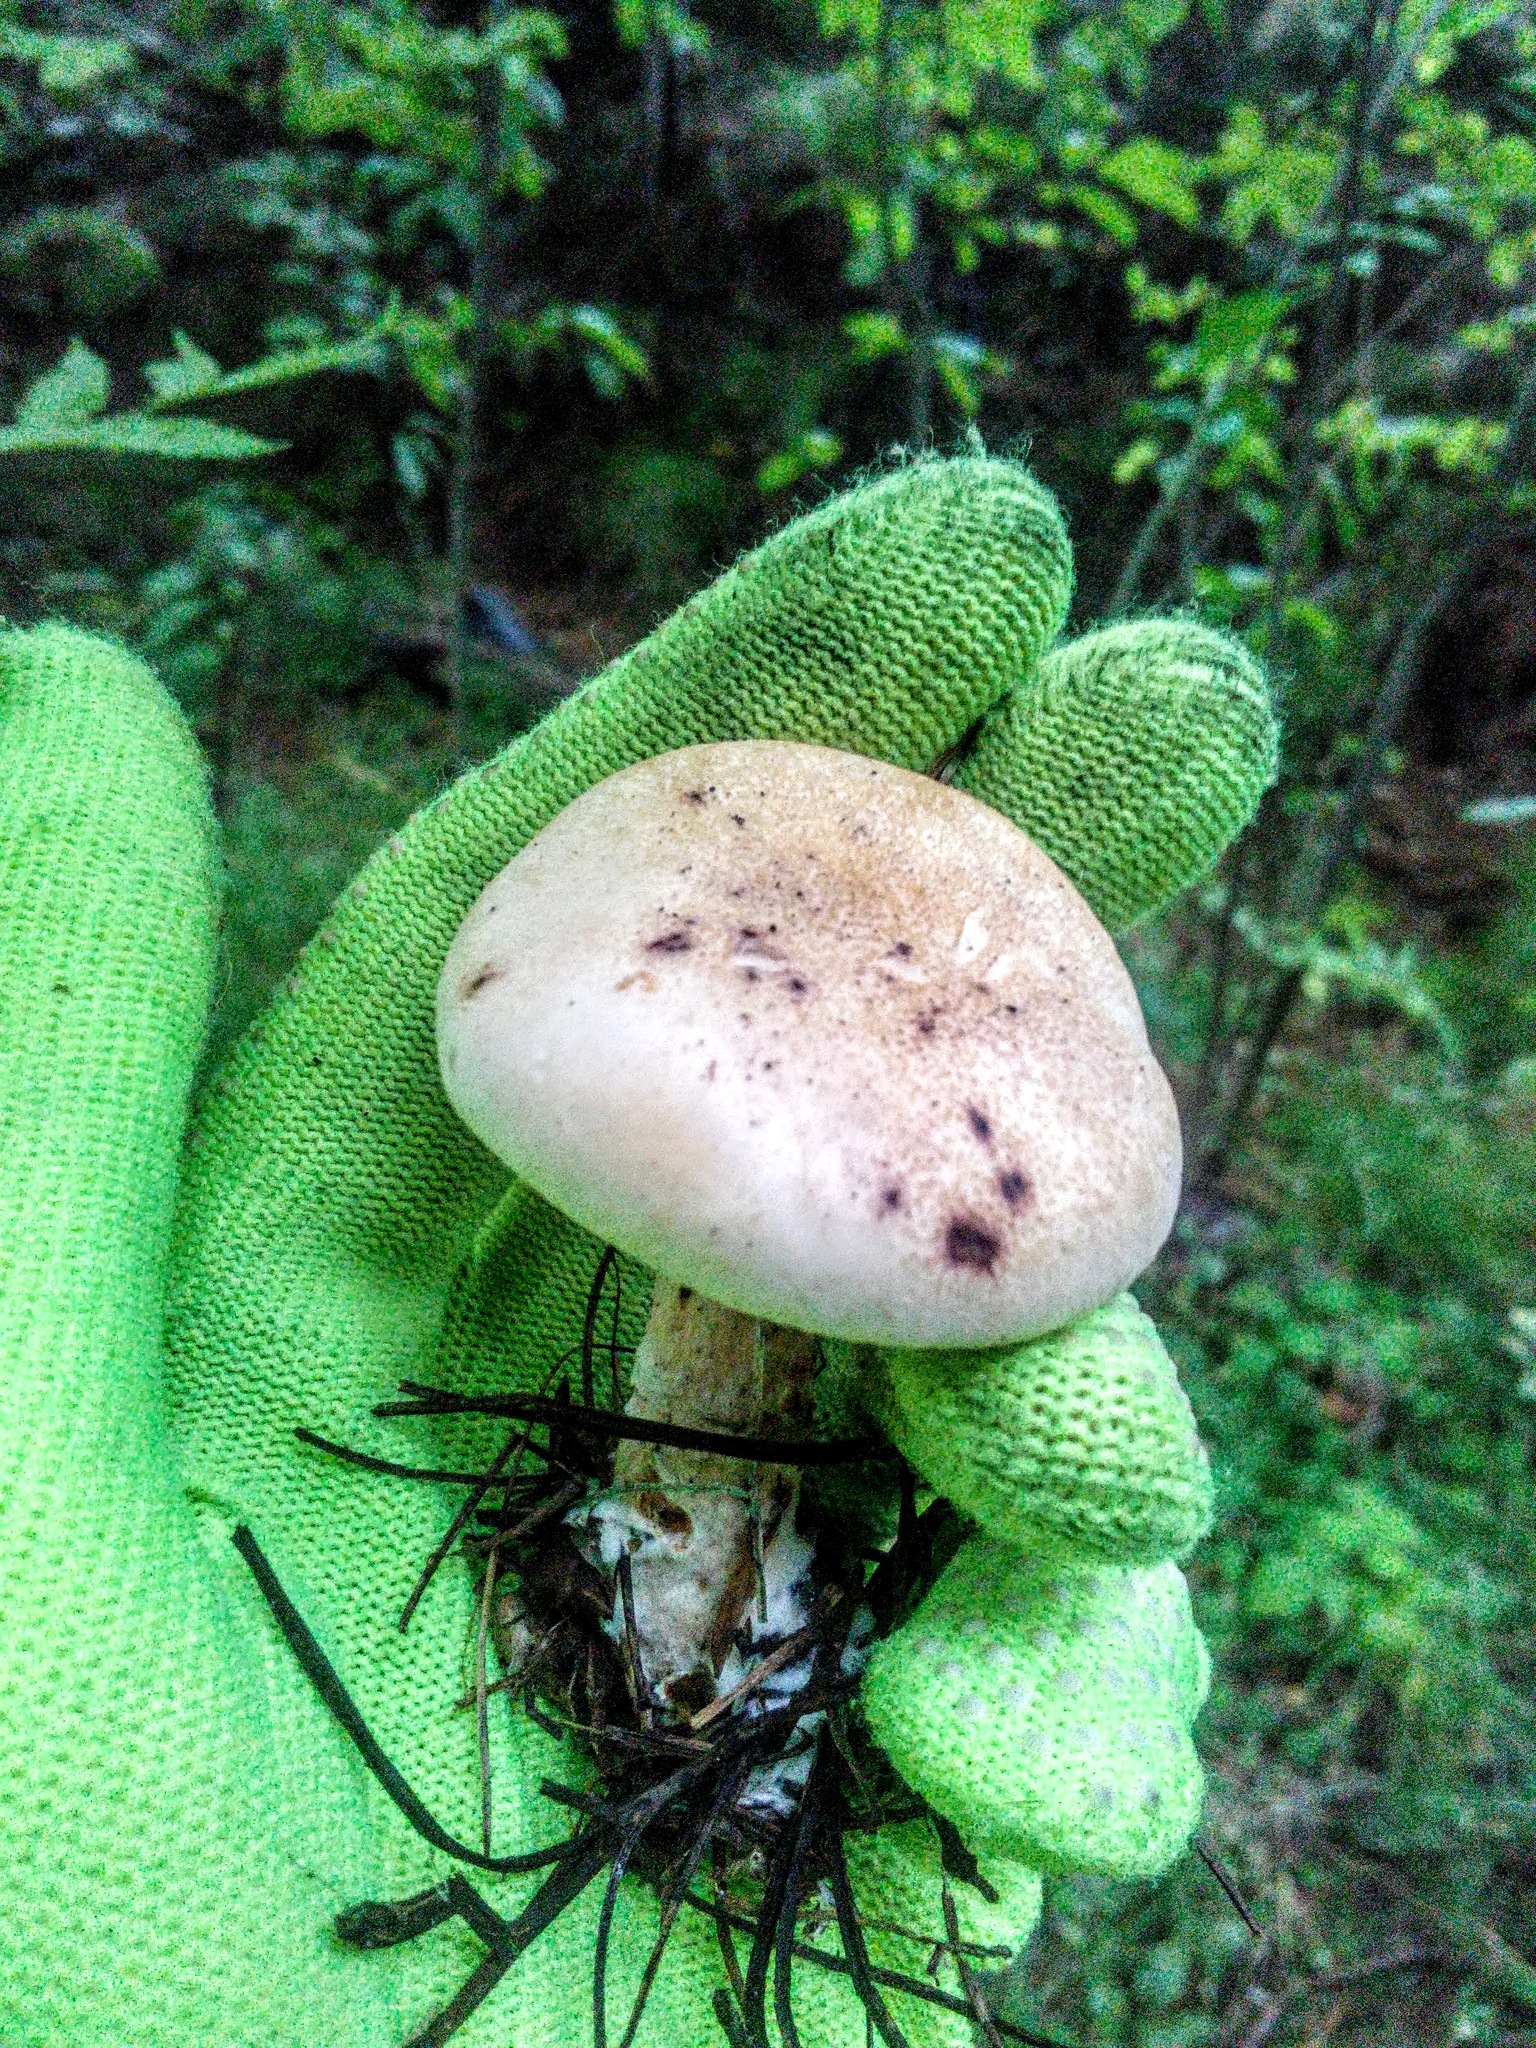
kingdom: Fungi
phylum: Basidiomycota
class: Agaricomycetes
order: Agaricales
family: Entolomataceae
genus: Clitopilus
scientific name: Clitopilus prunulus
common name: The miller
